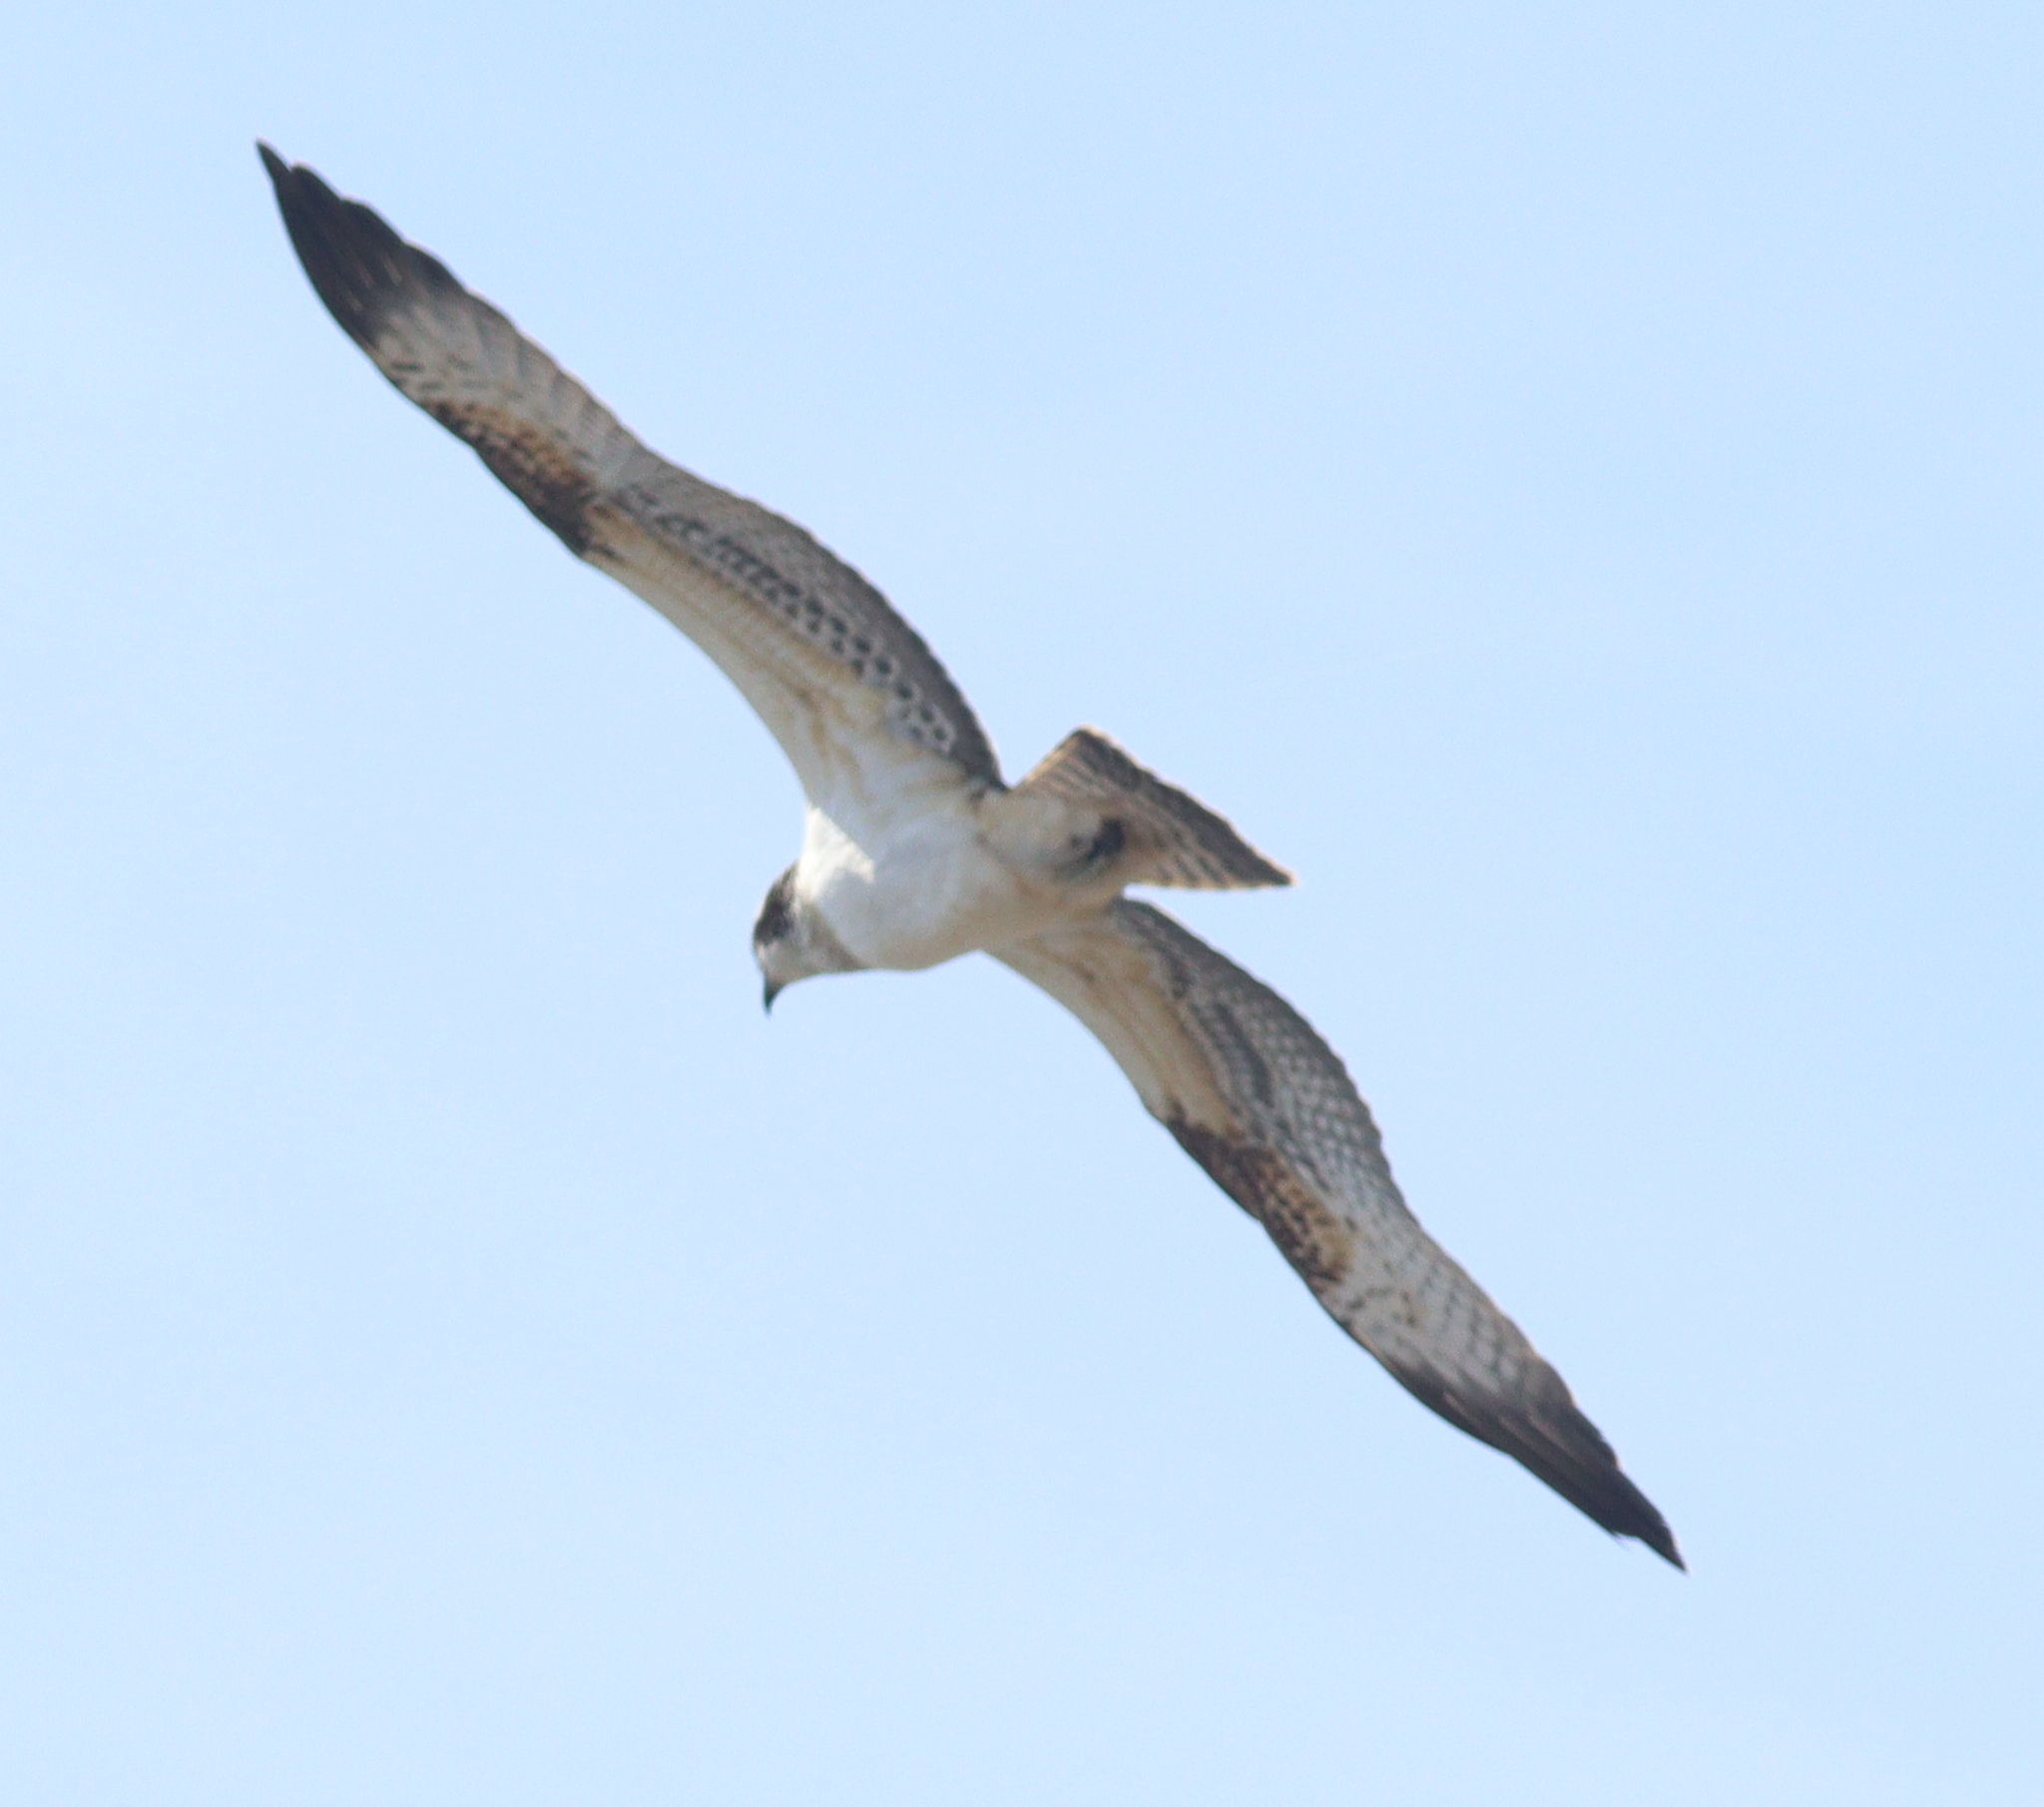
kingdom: Animalia
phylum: Chordata
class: Aves
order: Accipitriformes
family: Pandionidae
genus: Pandion
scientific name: Pandion haliaetus
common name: Osprey
